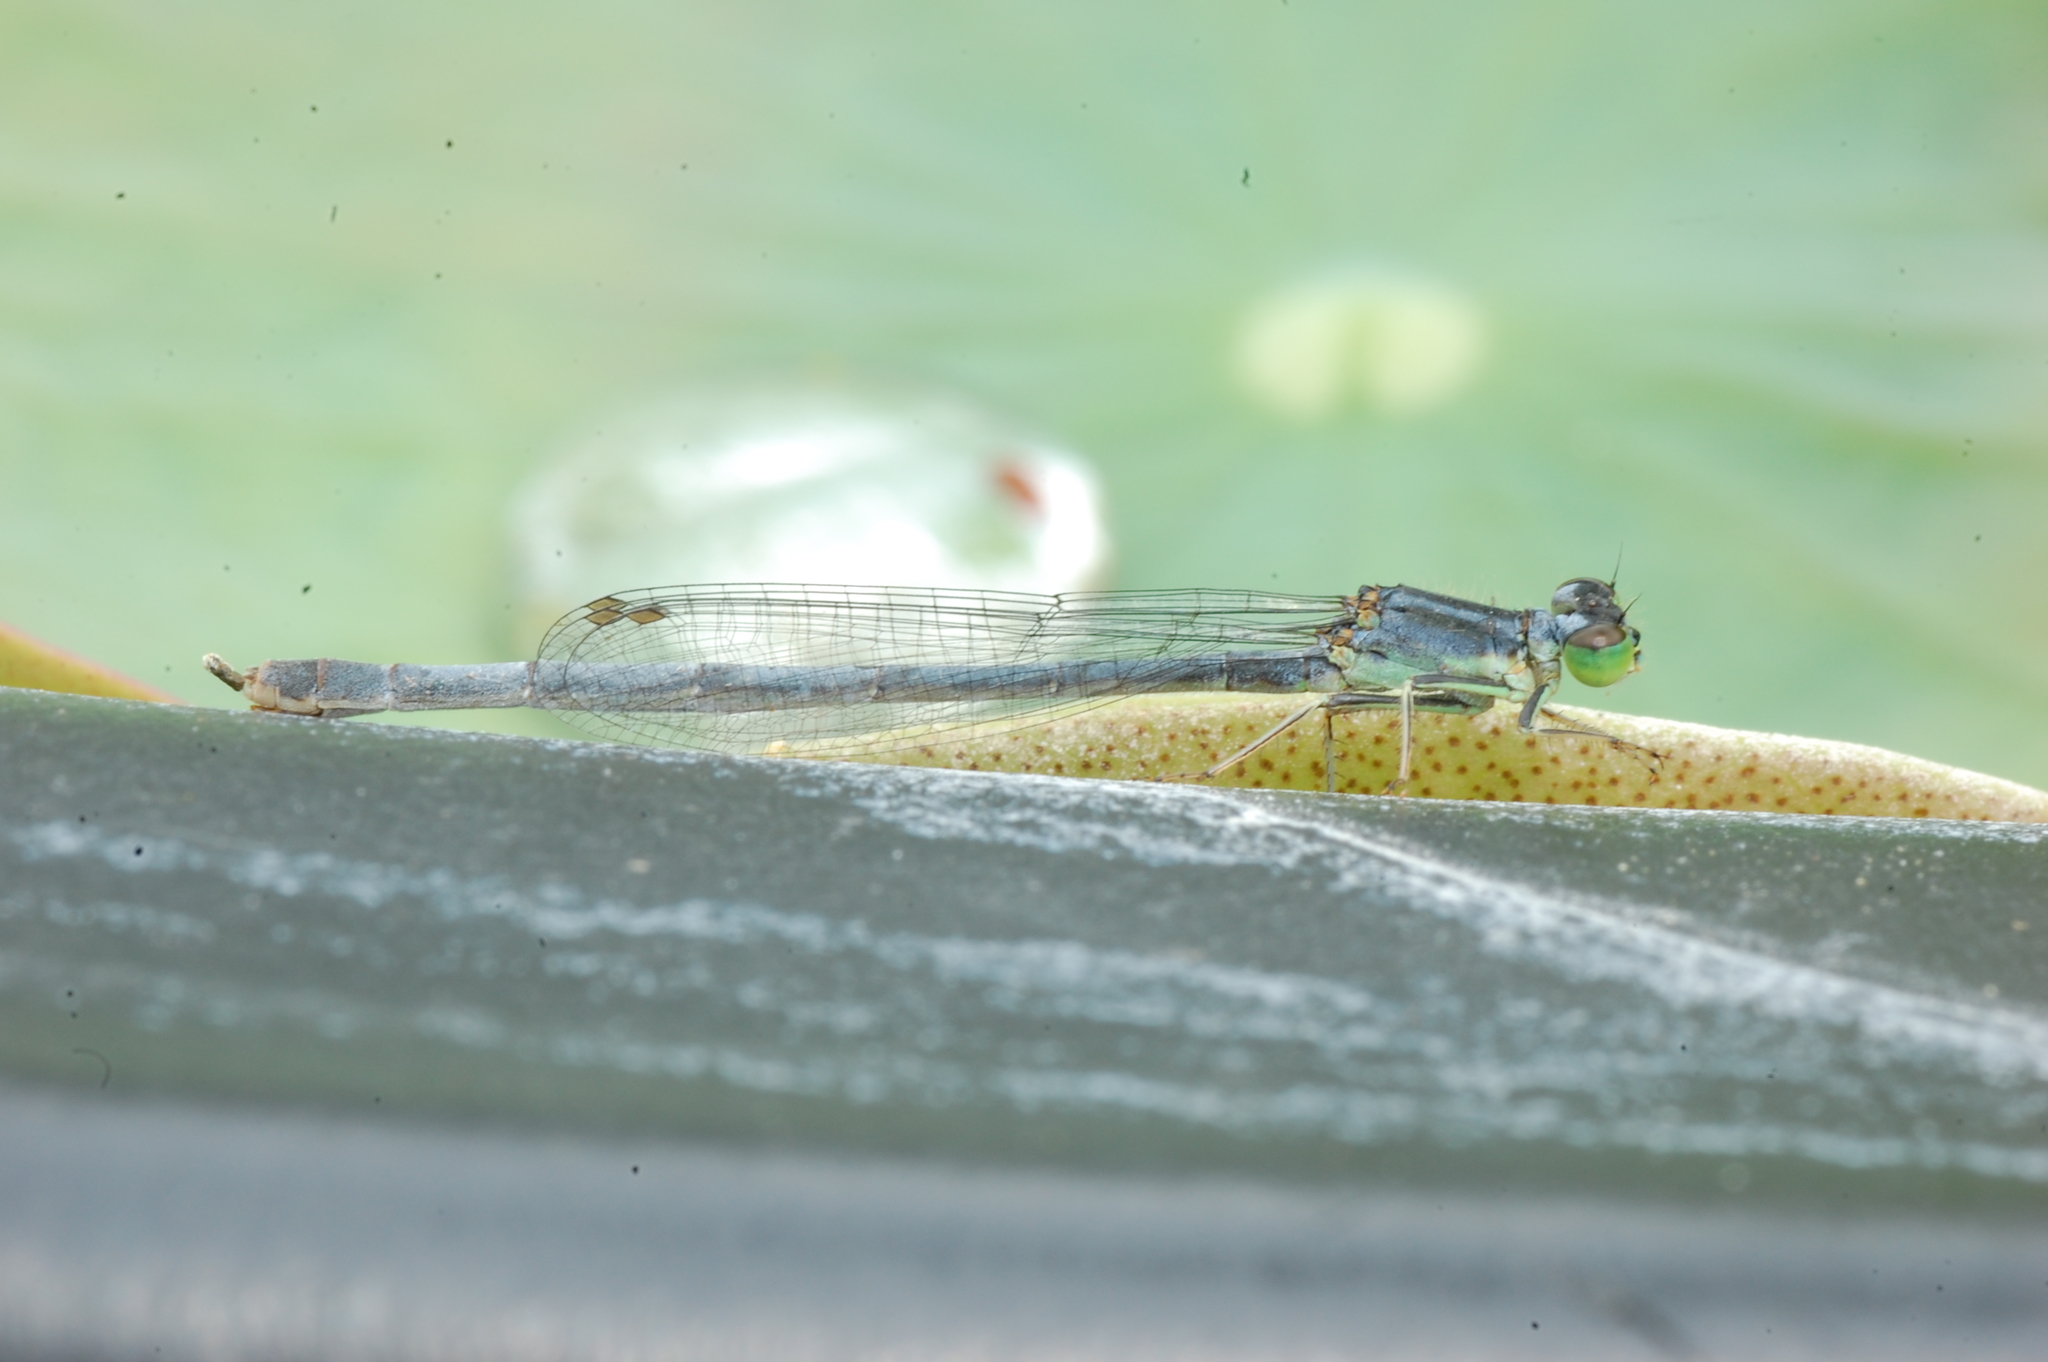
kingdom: Animalia
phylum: Arthropoda
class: Insecta
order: Odonata
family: Coenagrionidae
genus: Ischnura
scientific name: Ischnura verticalis
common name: Eastern forktail
